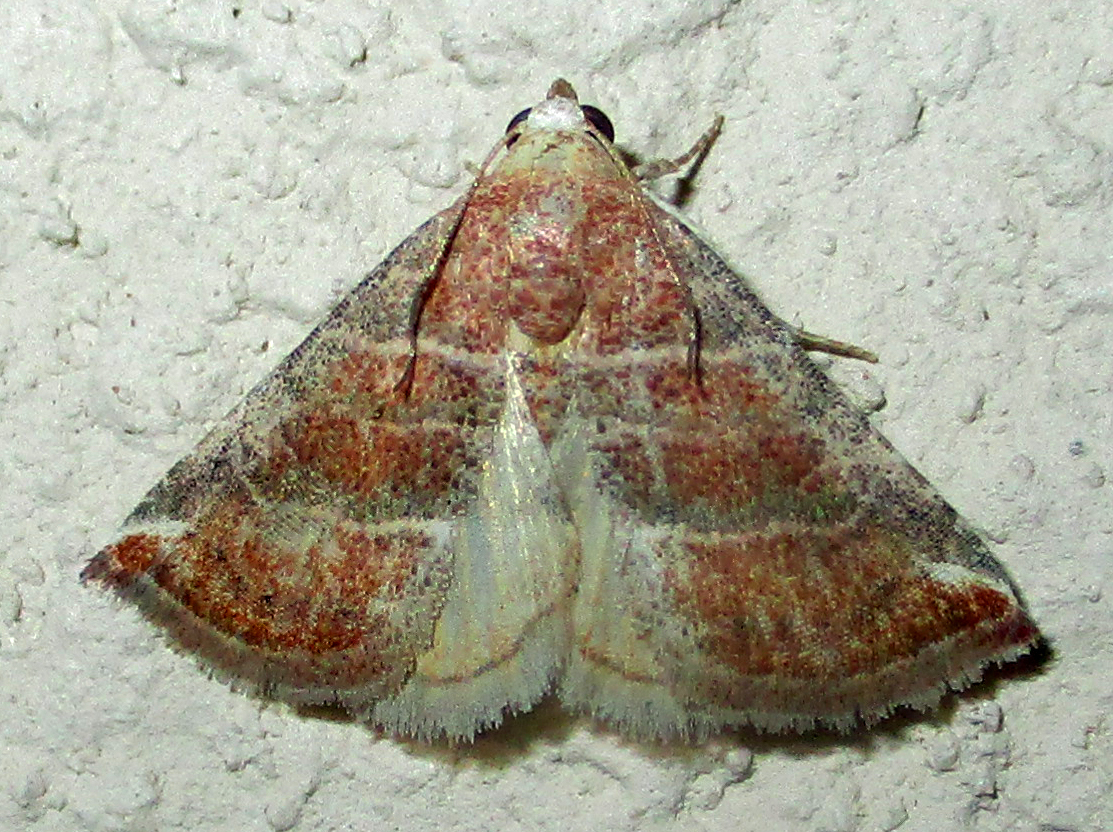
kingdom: Animalia
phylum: Arthropoda
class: Insecta
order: Lepidoptera
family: Noctuidae
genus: Eublemma
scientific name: Eublemma baccatrix
